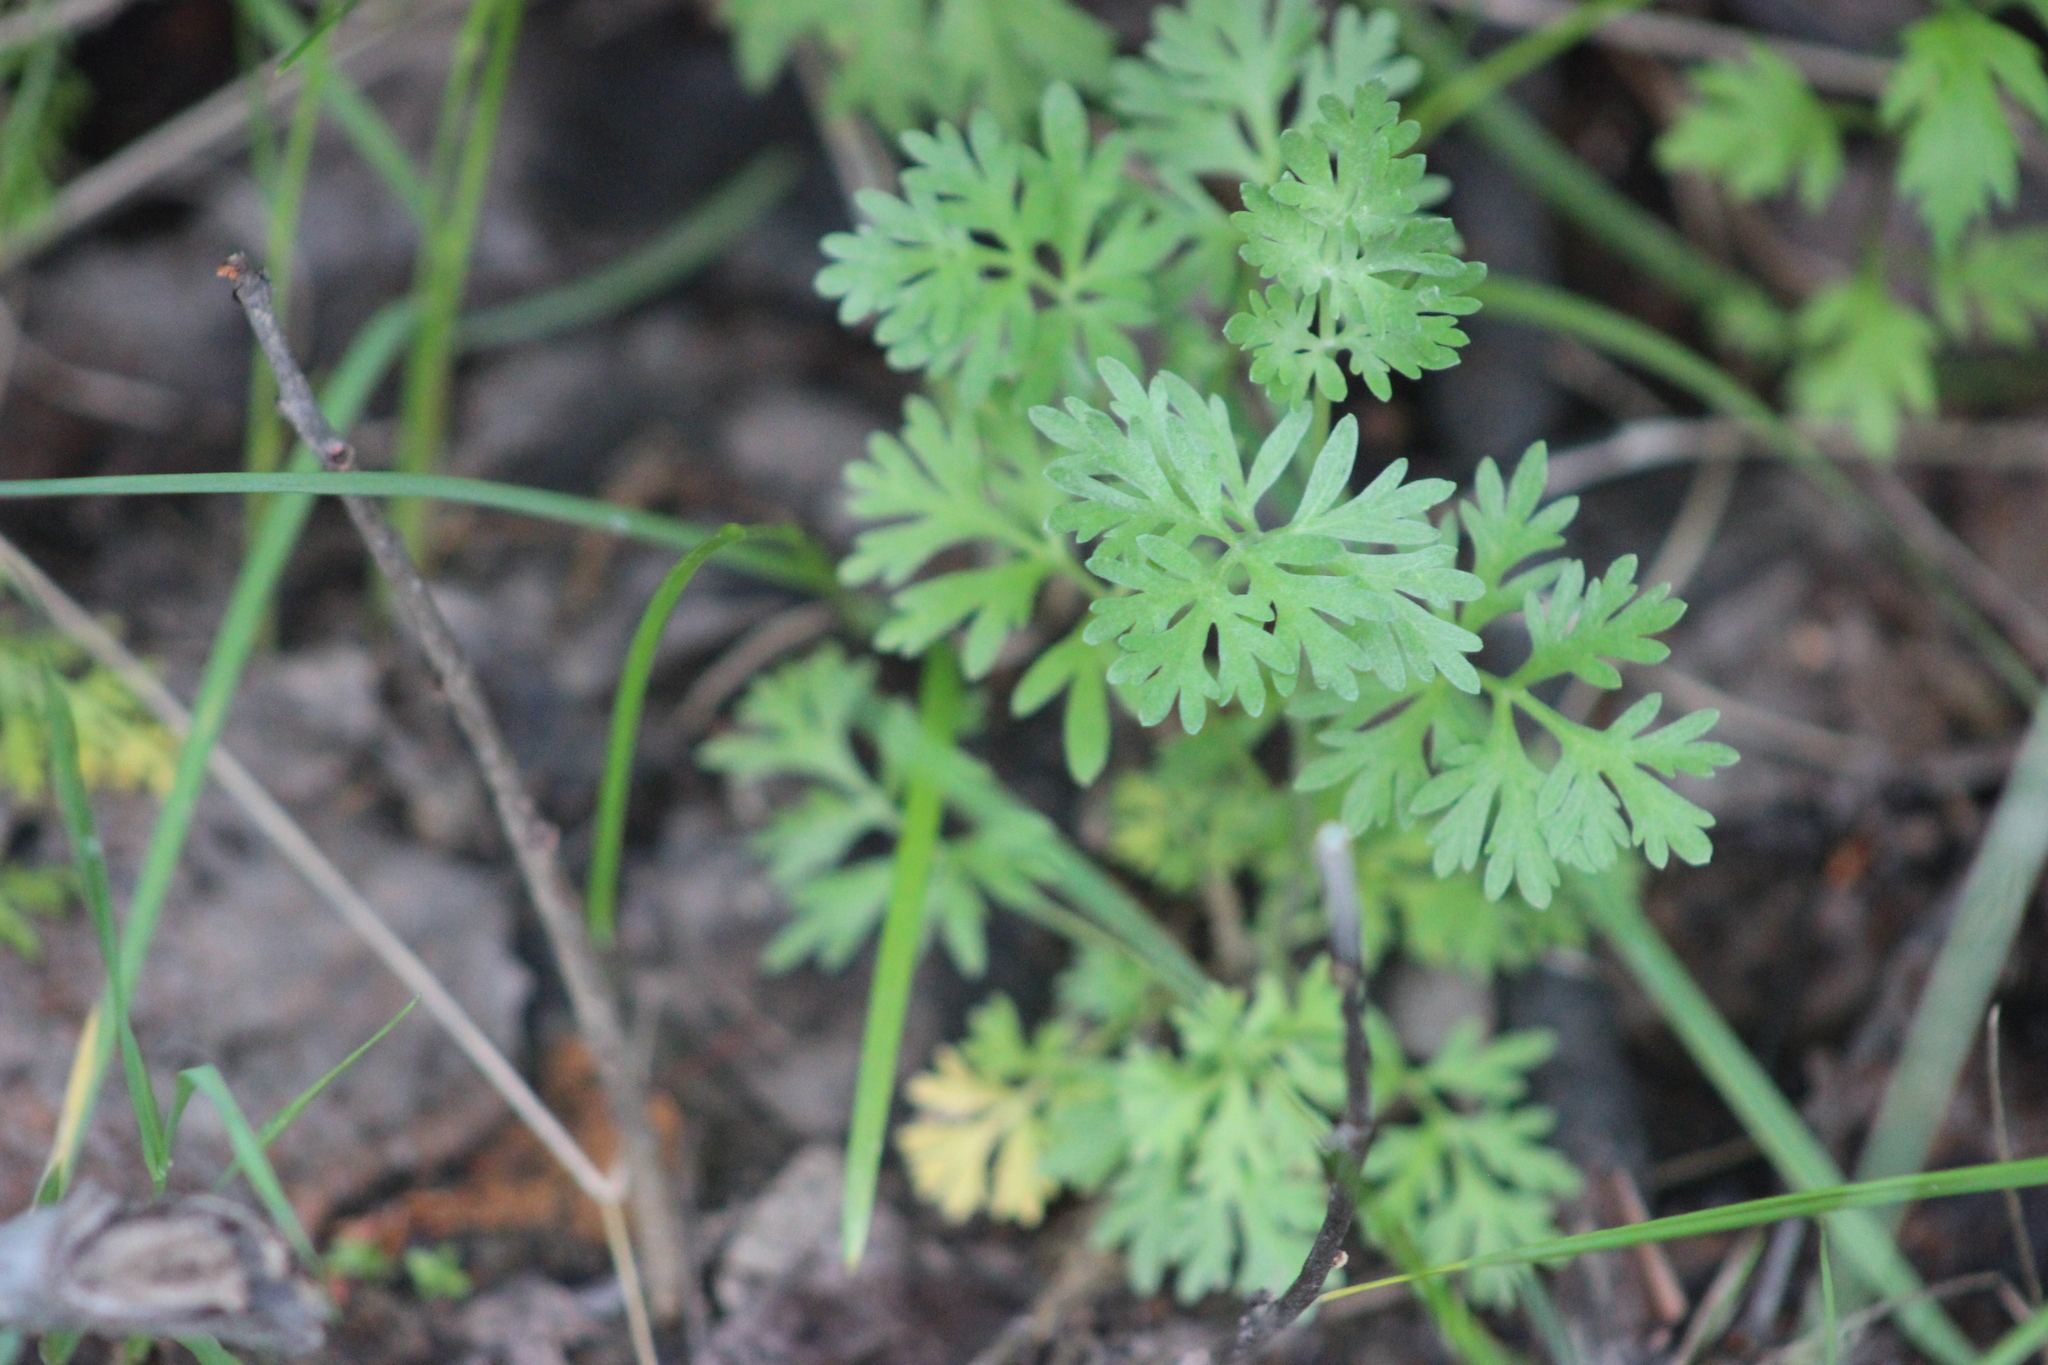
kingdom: Plantae
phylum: Tracheophyta
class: Magnoliopsida
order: Asterales
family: Asteraceae
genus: Artemisia
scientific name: Artemisia absinthium
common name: Wormwood
